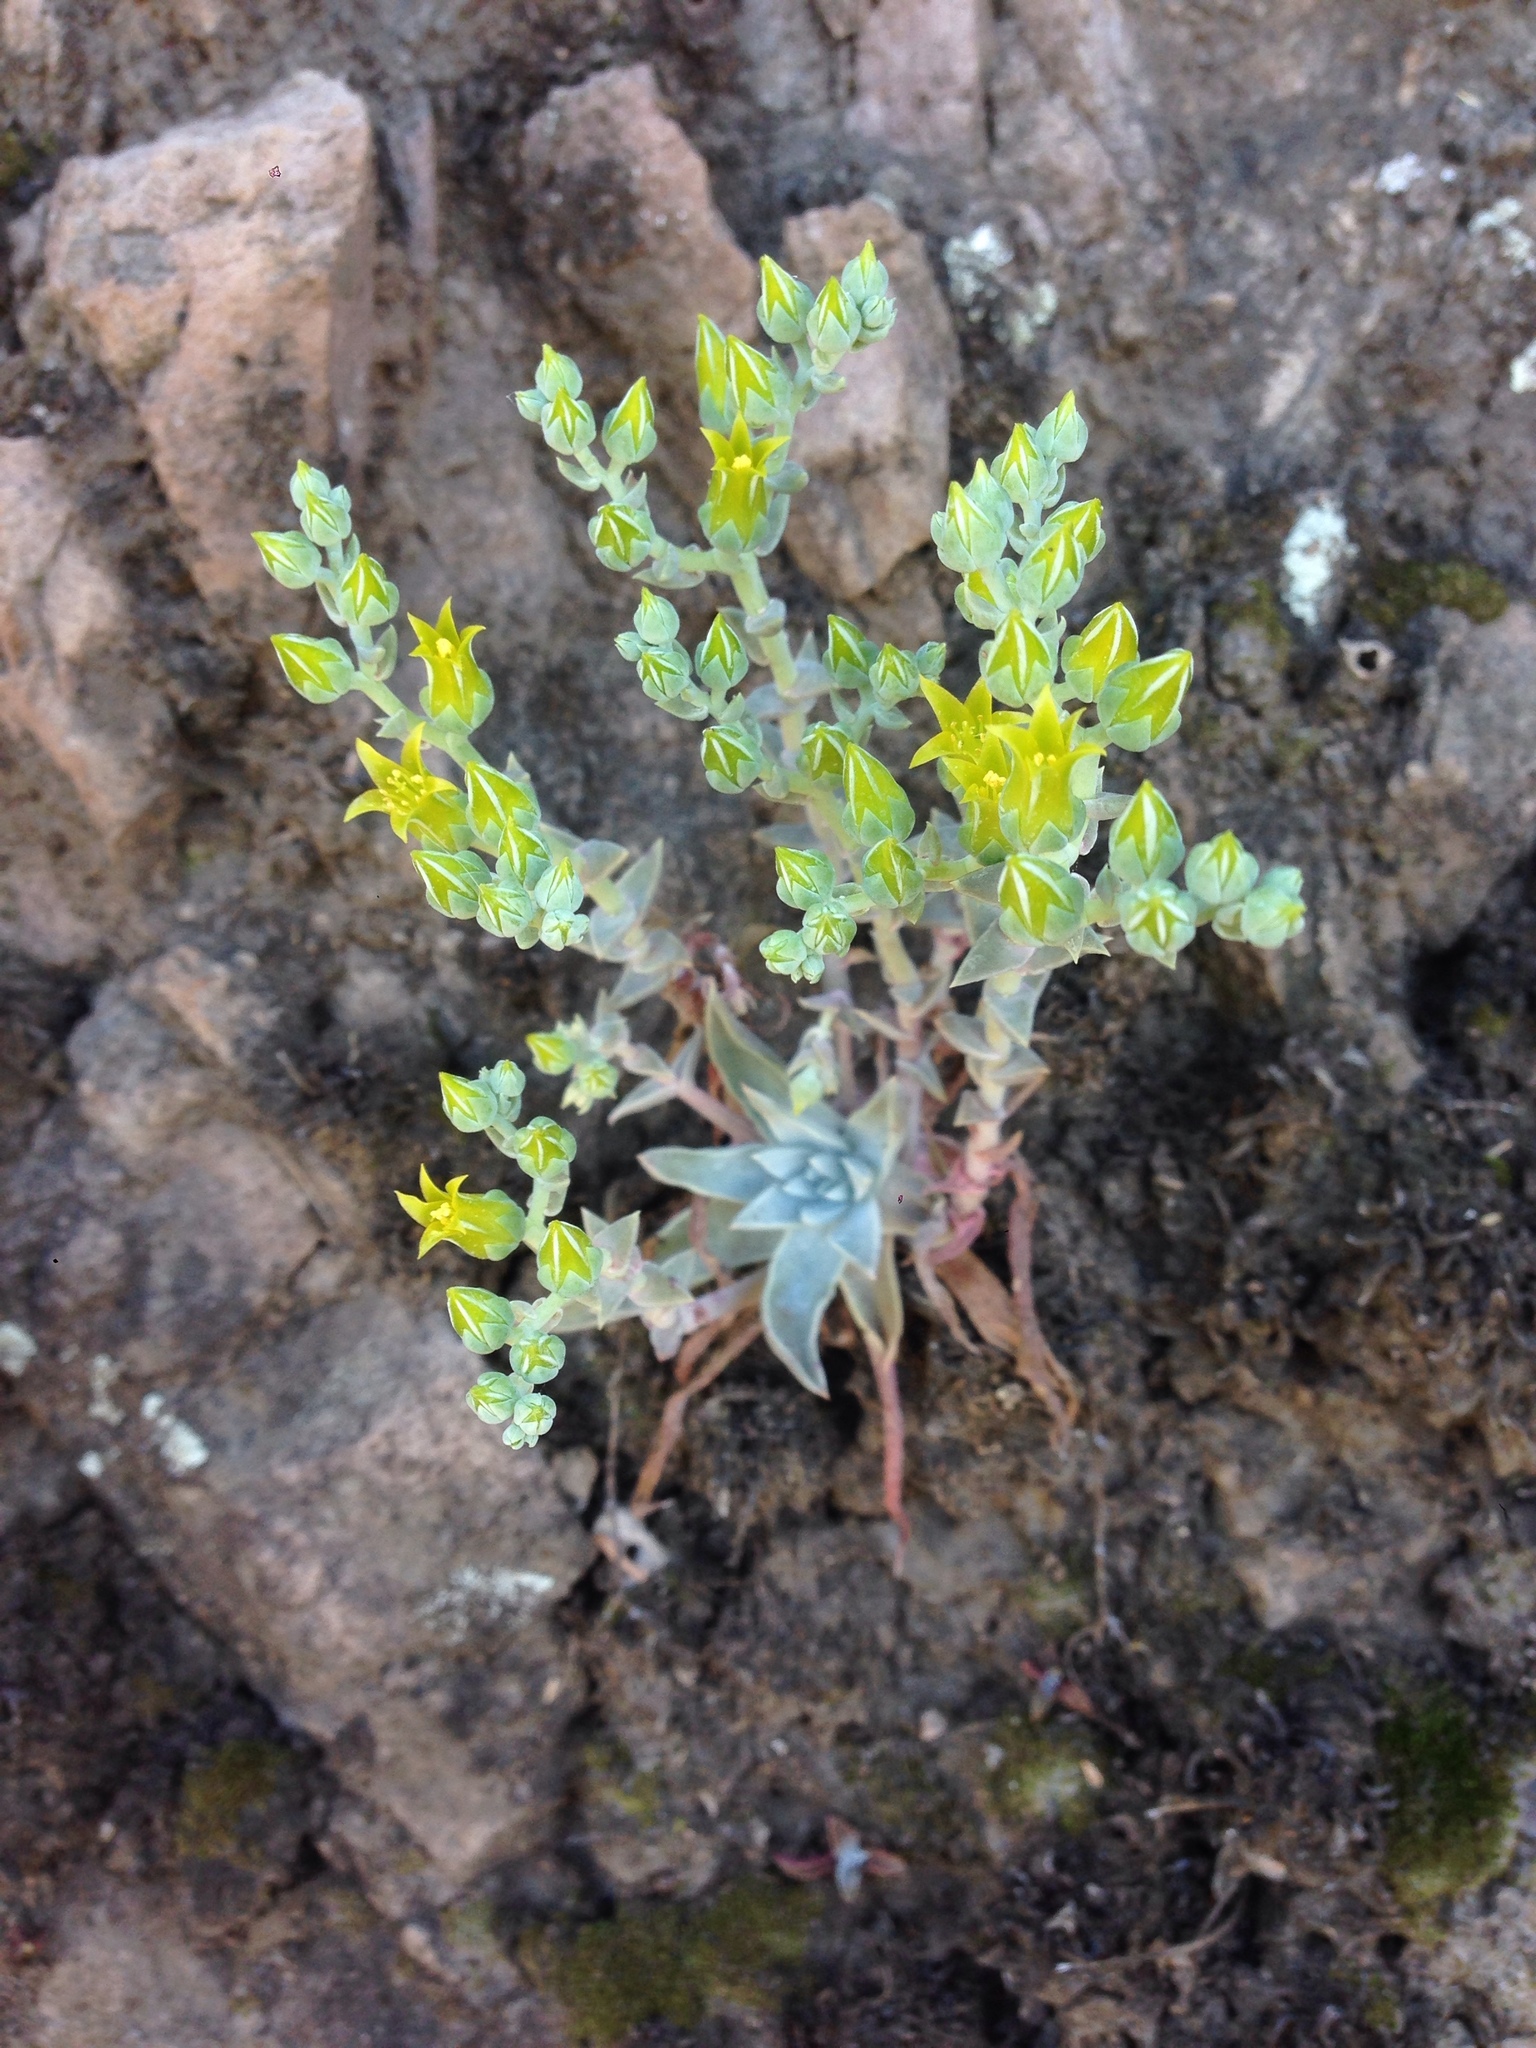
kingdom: Plantae
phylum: Tracheophyta
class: Magnoliopsida
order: Saxifragales
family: Crassulaceae
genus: Dudleya
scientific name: Dudleya verityi
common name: Verity dudleya
